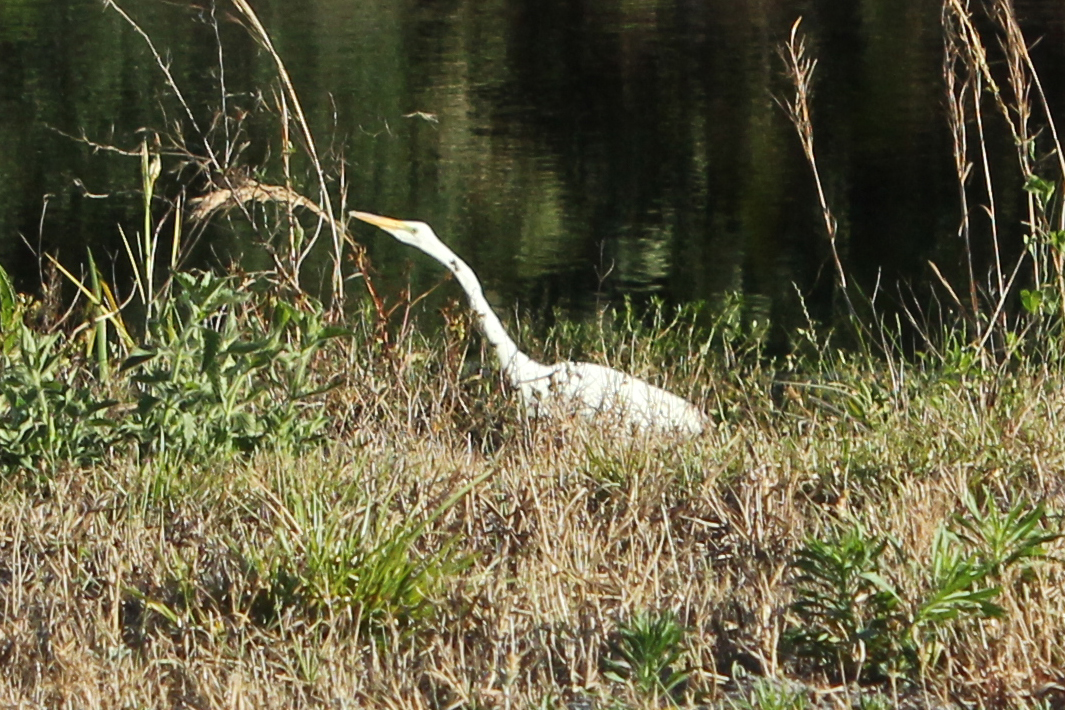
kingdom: Animalia
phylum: Chordata
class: Aves
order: Pelecaniformes
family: Ardeidae
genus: Ardea
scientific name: Ardea alba
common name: Great egret
